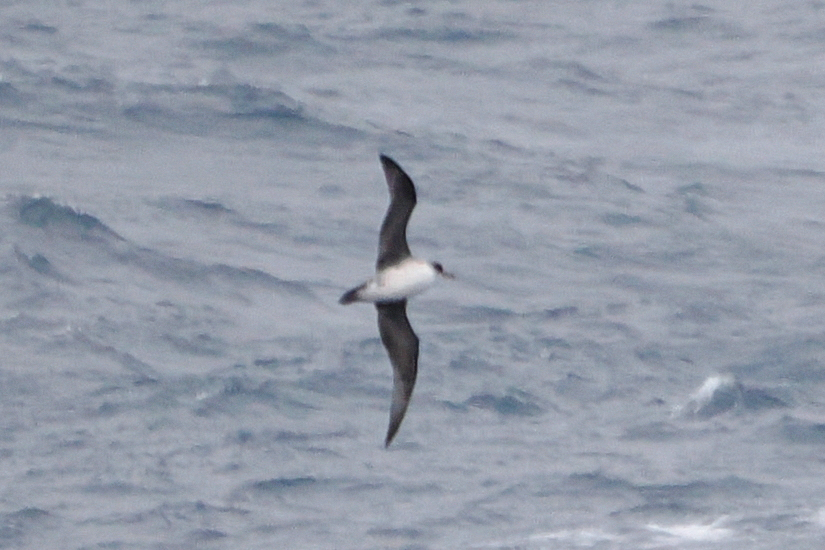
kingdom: Animalia
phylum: Chordata
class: Aves
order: Procellariiformes
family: Procellariidae
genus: Procellaria
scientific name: Procellaria cinerea
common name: Grey petrel
